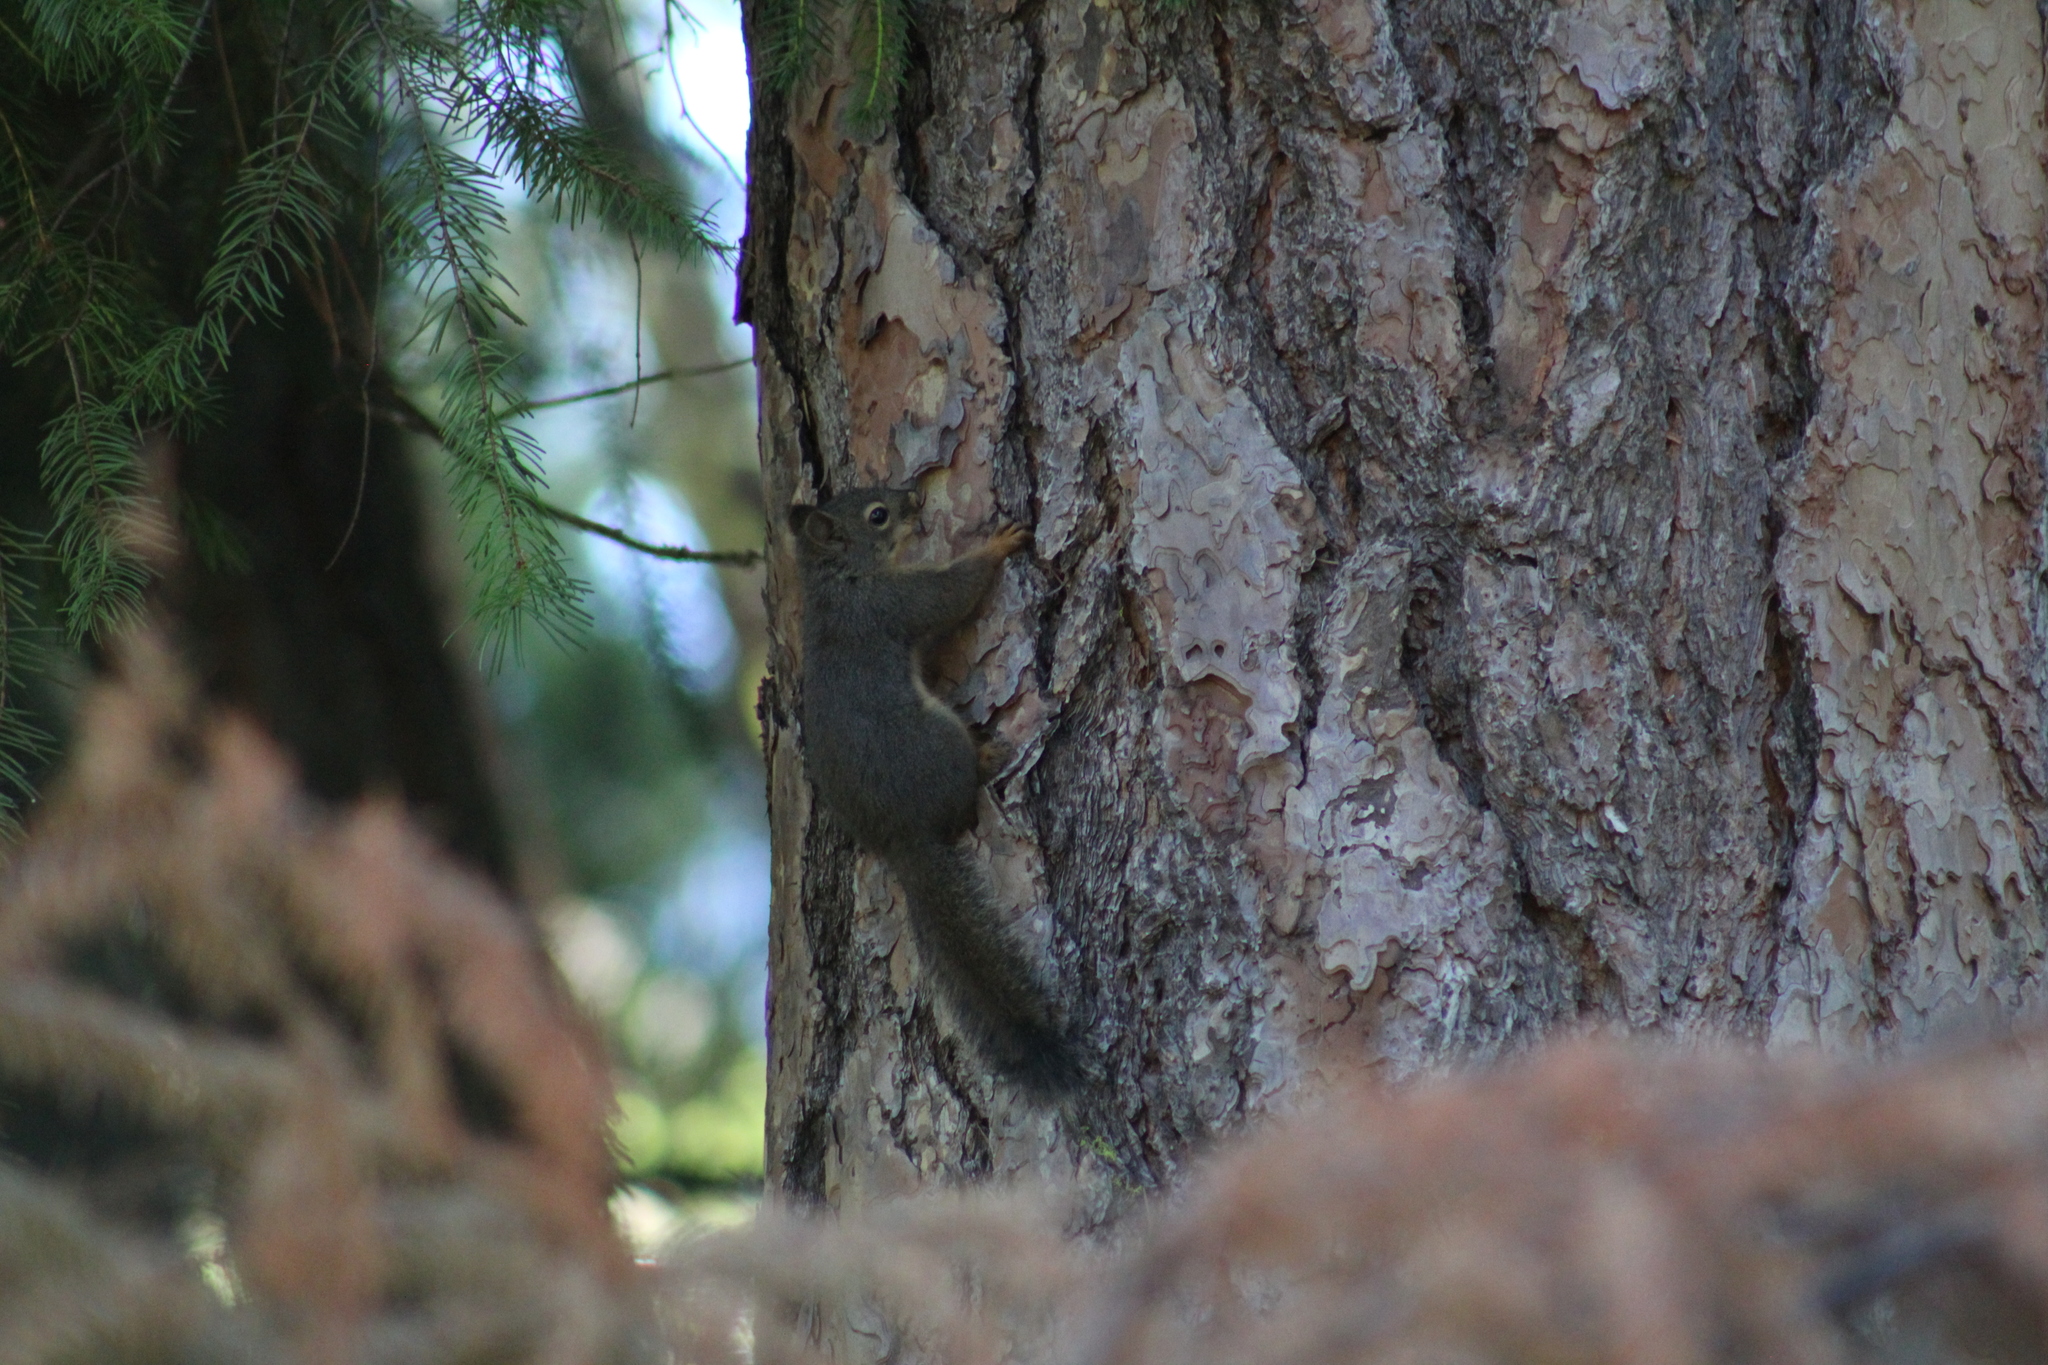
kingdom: Animalia
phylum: Chordata
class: Mammalia
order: Rodentia
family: Sciuridae
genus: Tamiasciurus
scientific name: Tamiasciurus douglasii
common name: Douglas's squirrel
